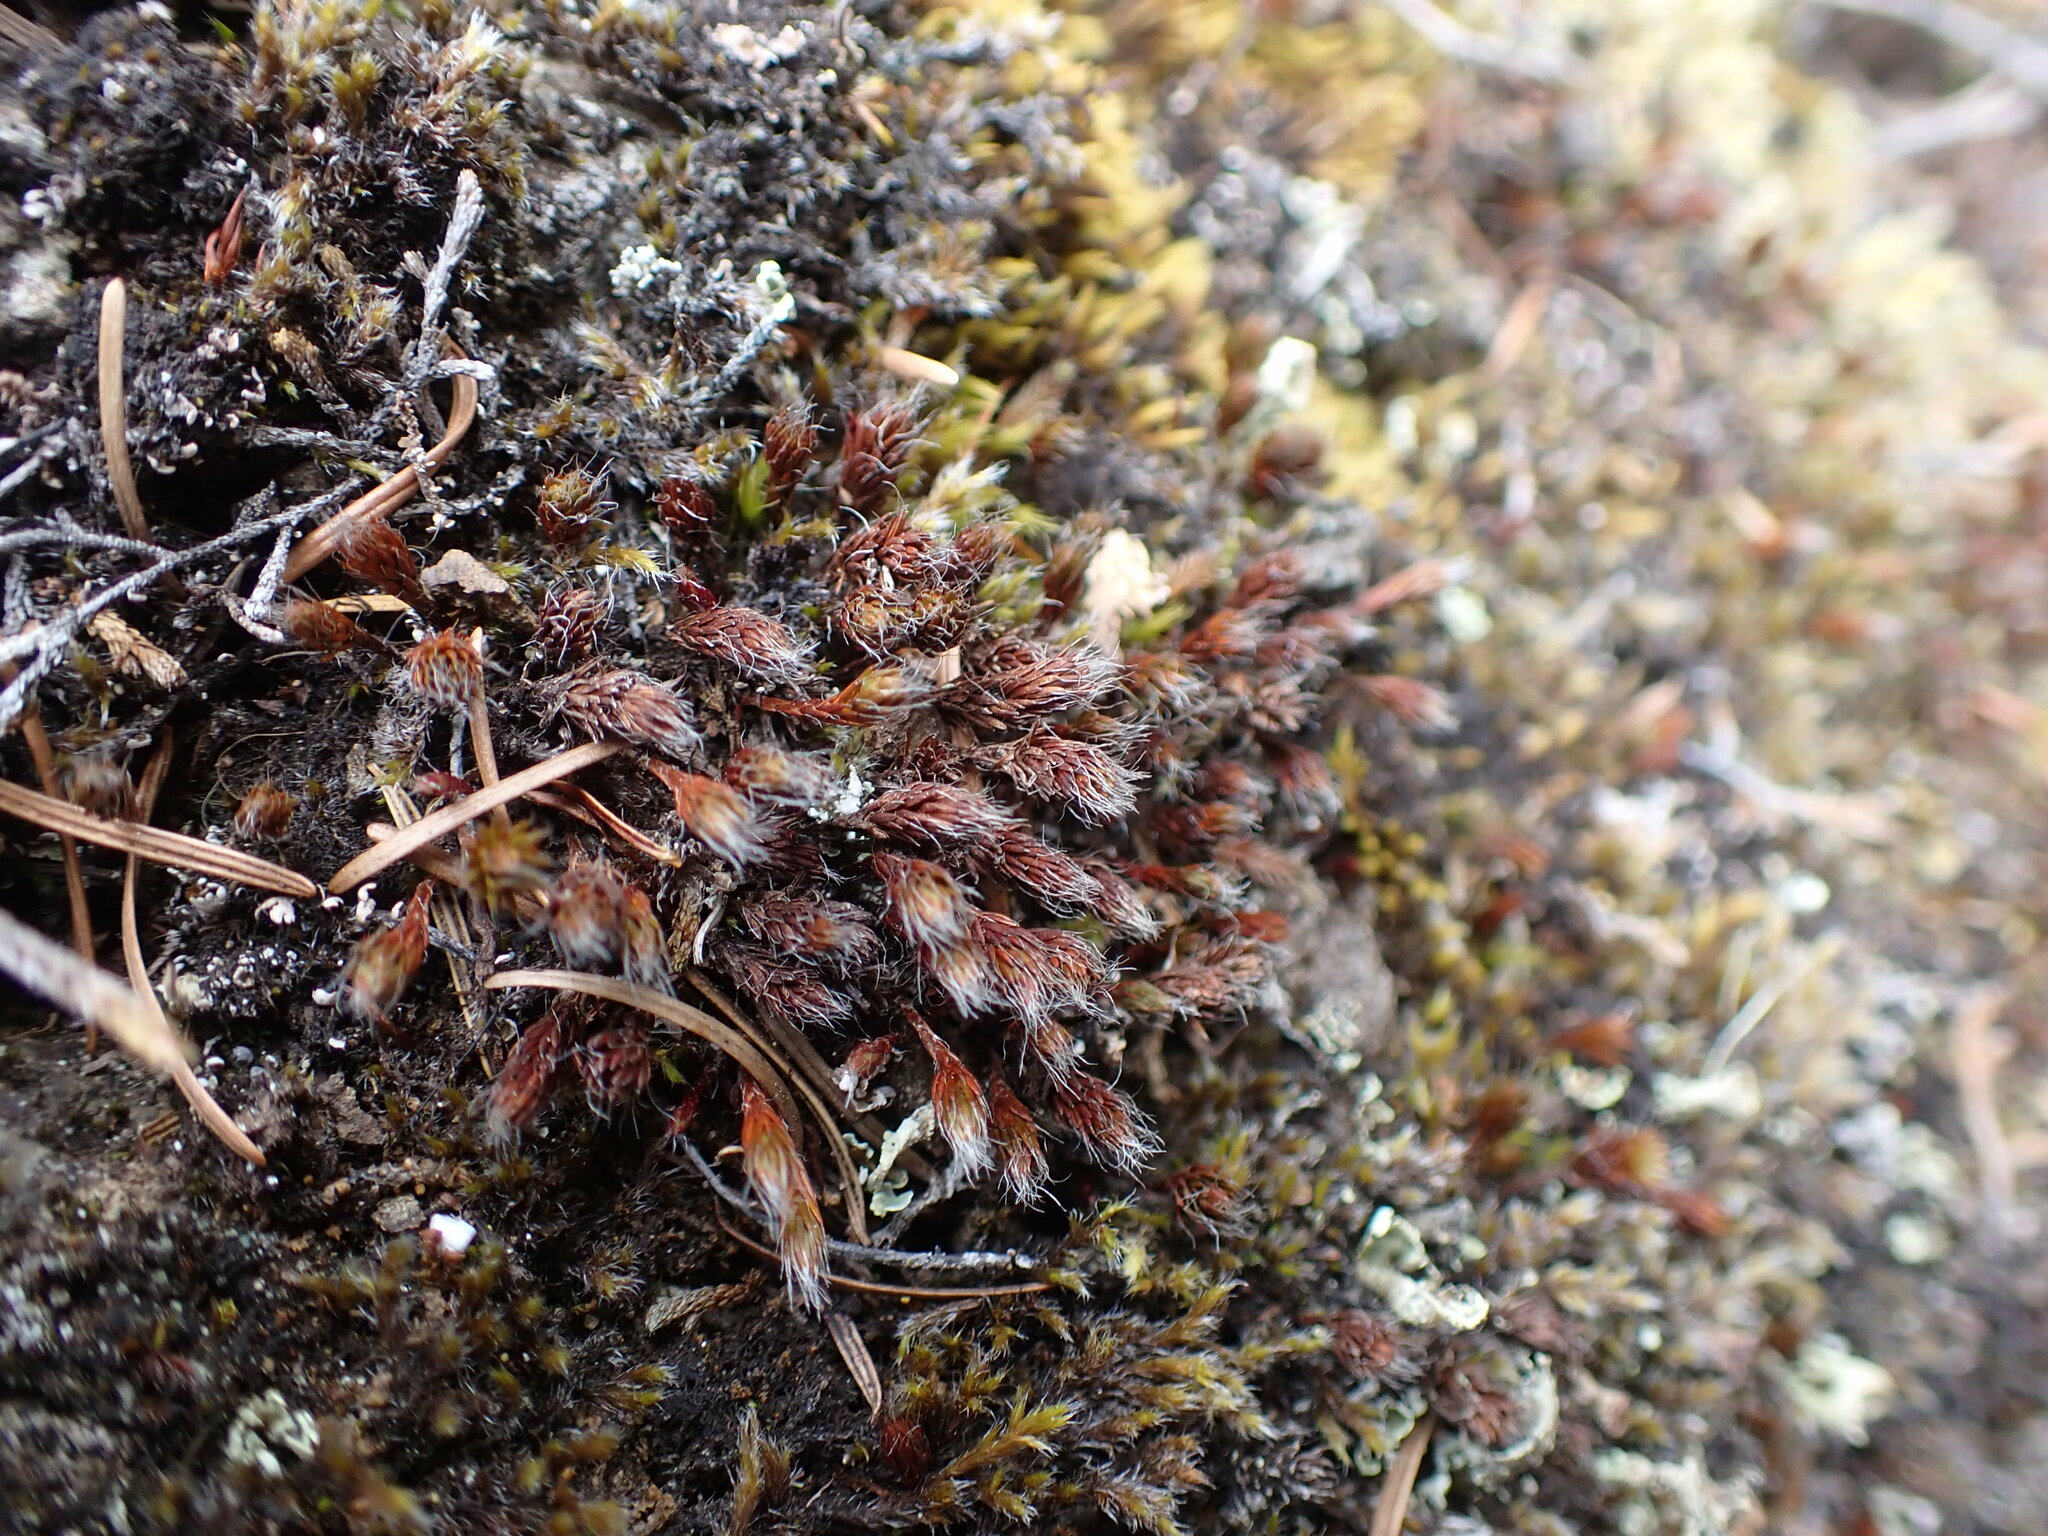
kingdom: Plantae
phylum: Bryophyta
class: Polytrichopsida
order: Polytrichales
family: Polytrichaceae
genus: Polytrichum
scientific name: Polytrichum piliferum
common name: Bristly haircap
